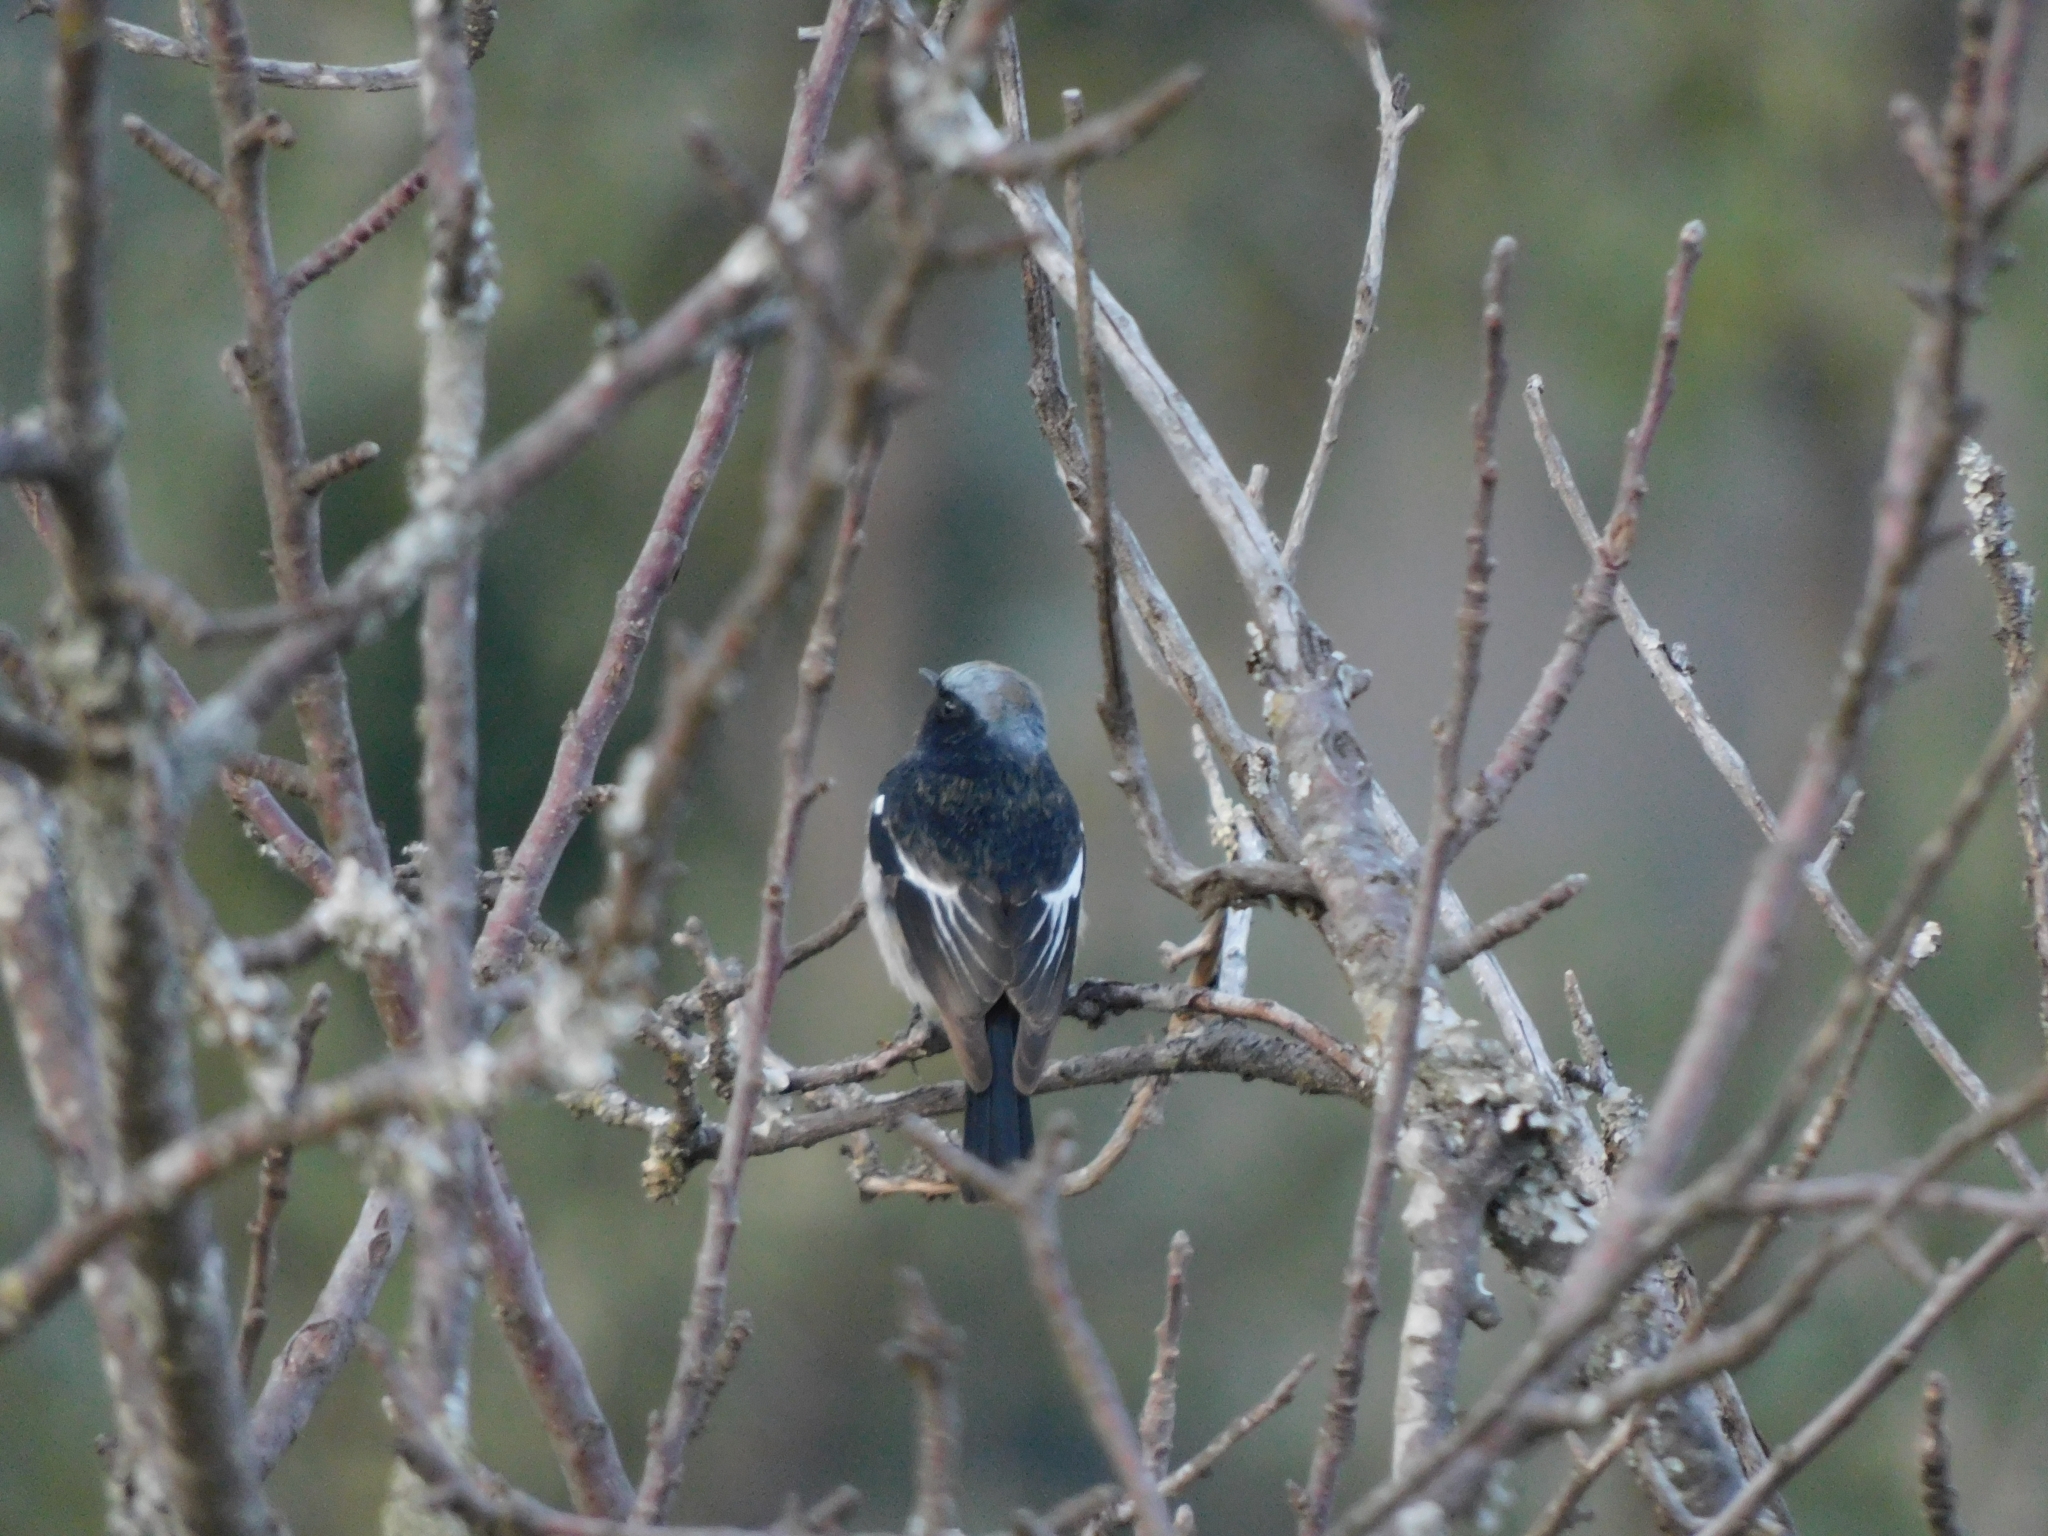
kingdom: Animalia
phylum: Chordata
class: Aves
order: Passeriformes
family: Muscicapidae
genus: Phoenicurus
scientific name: Phoenicurus coeruleocephala
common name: Blue-capped redstart
